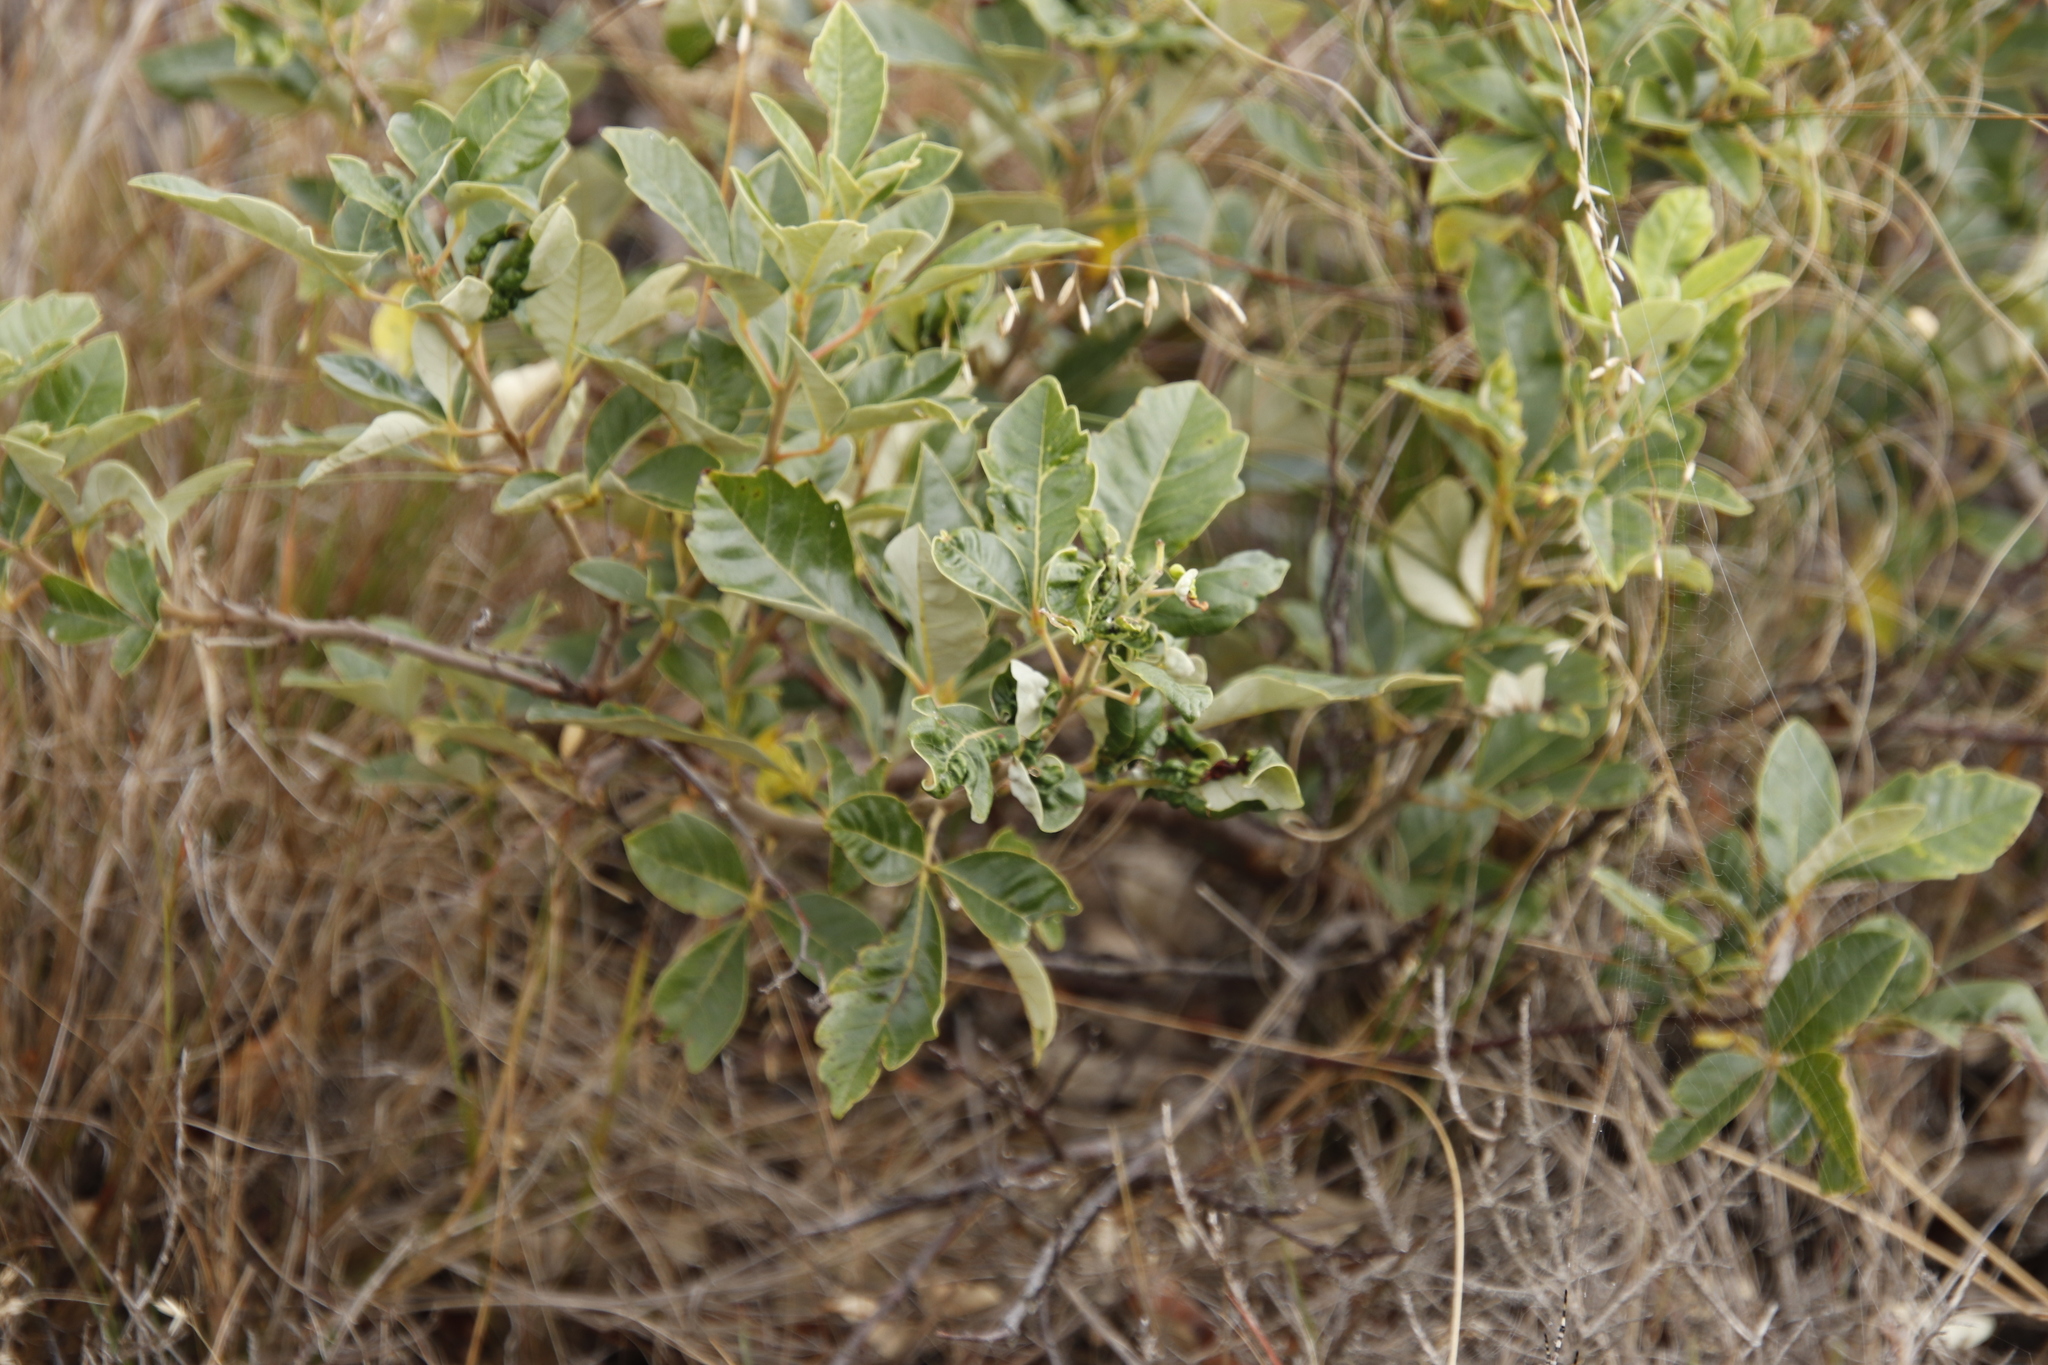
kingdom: Plantae
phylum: Tracheophyta
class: Magnoliopsida
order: Sapindales
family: Anacardiaceae
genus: Searsia
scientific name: Searsia tomentosa
